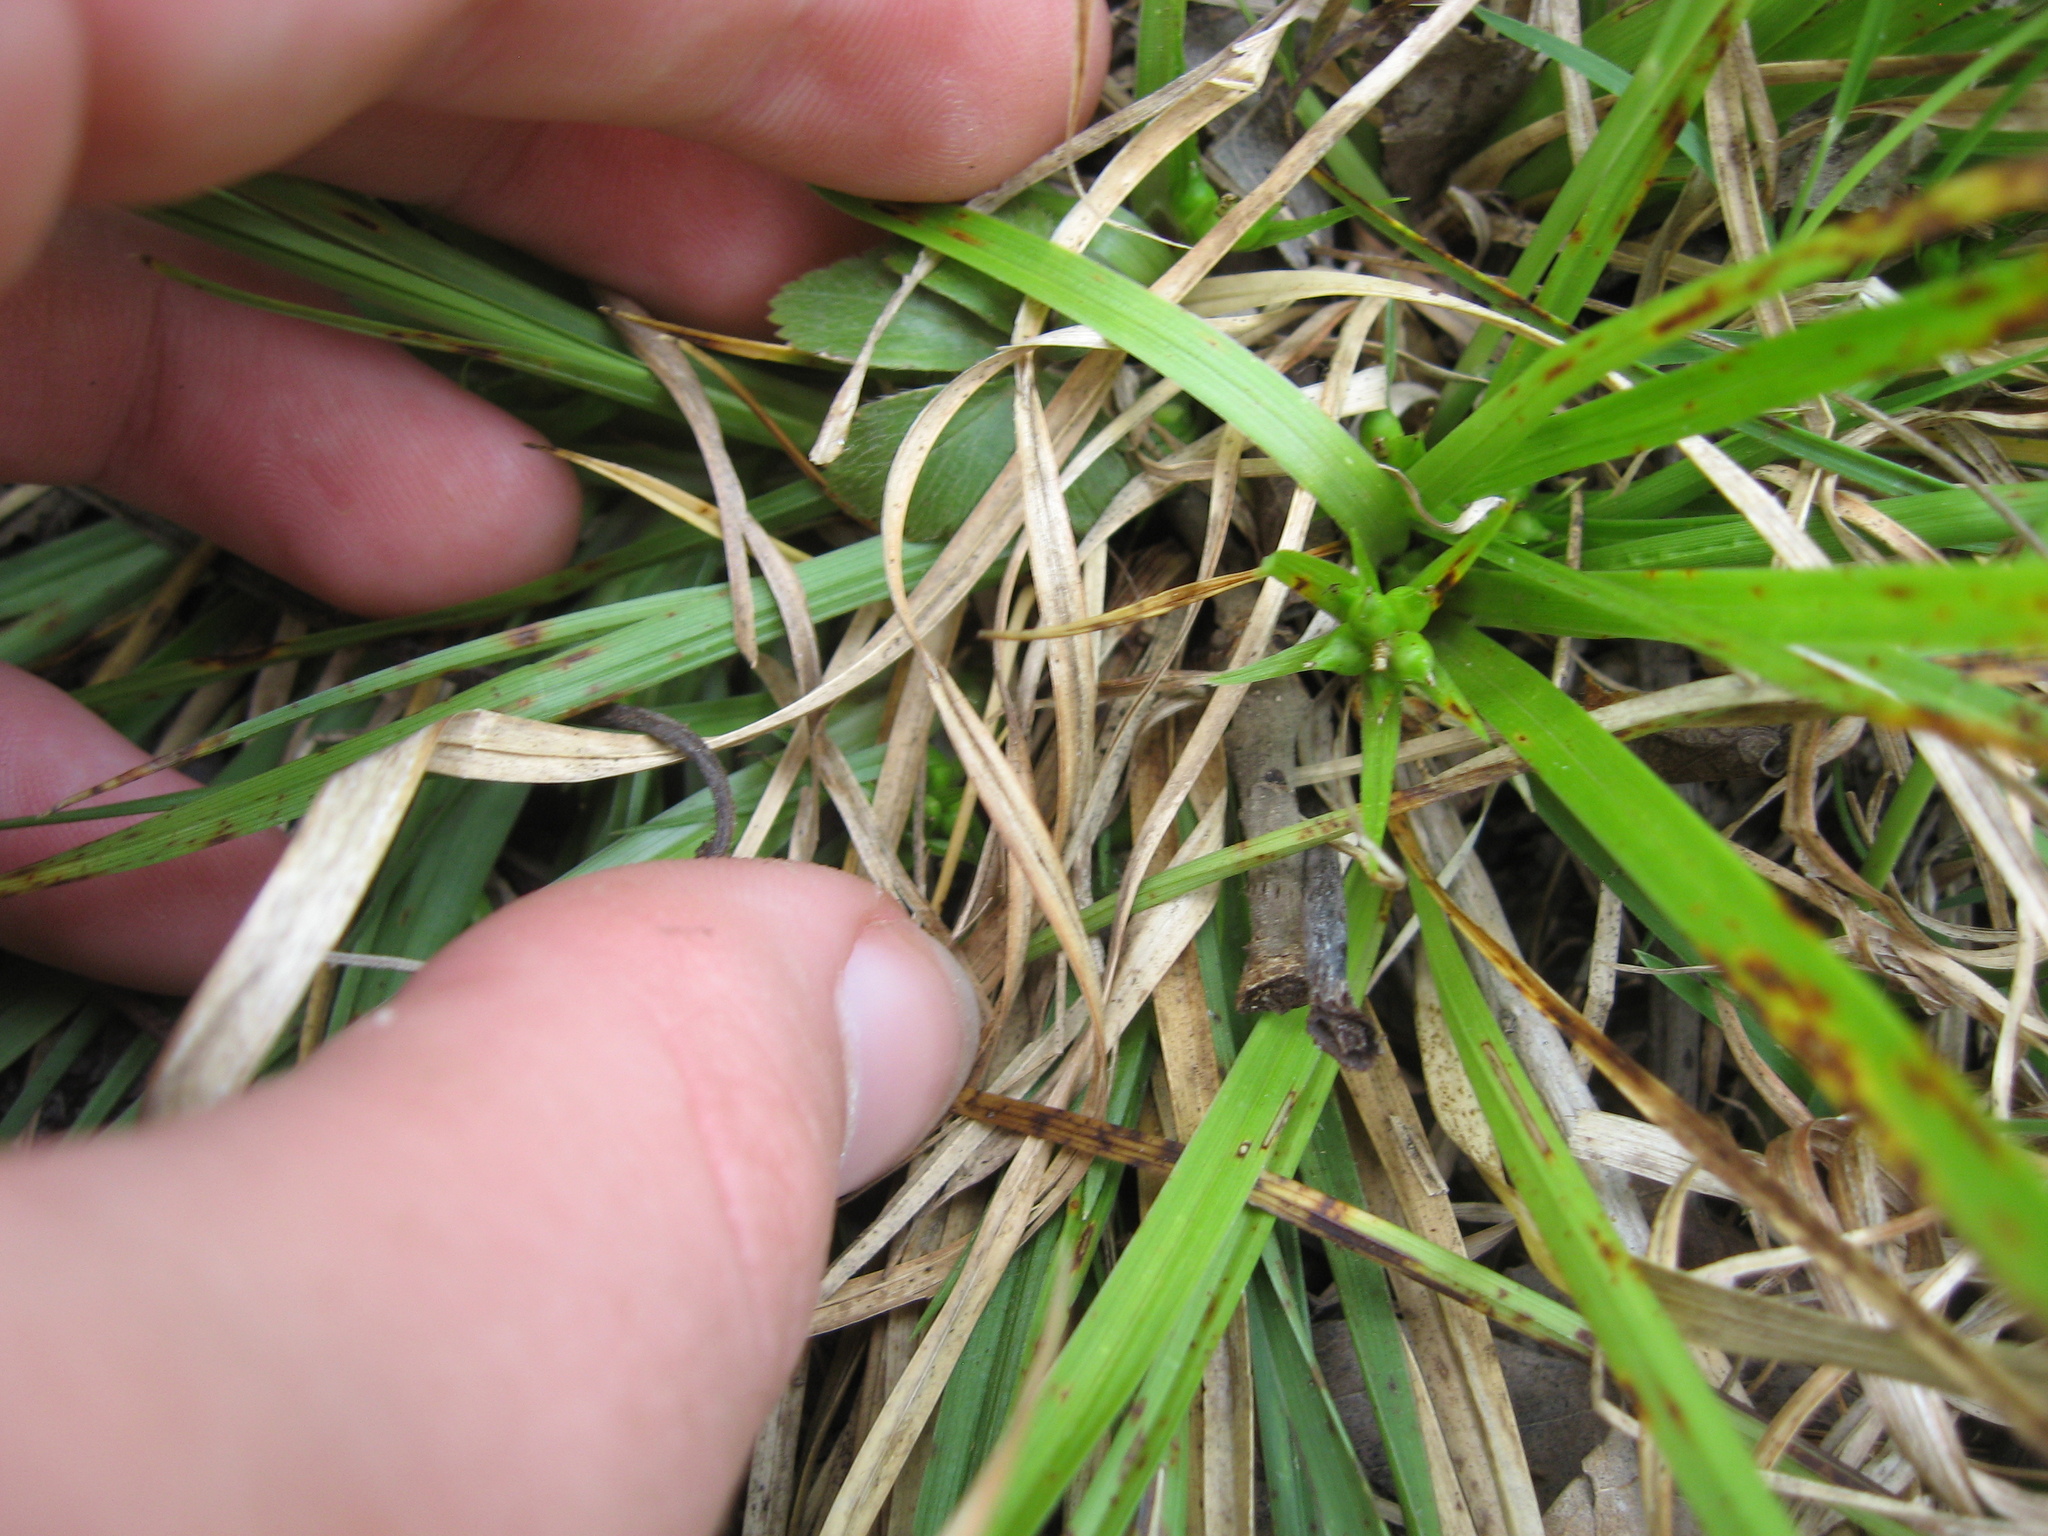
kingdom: Plantae
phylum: Tracheophyta
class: Liliopsida
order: Poales
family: Cyperaceae
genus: Carex
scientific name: Carex juniperorum
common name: Juniper-sedge
